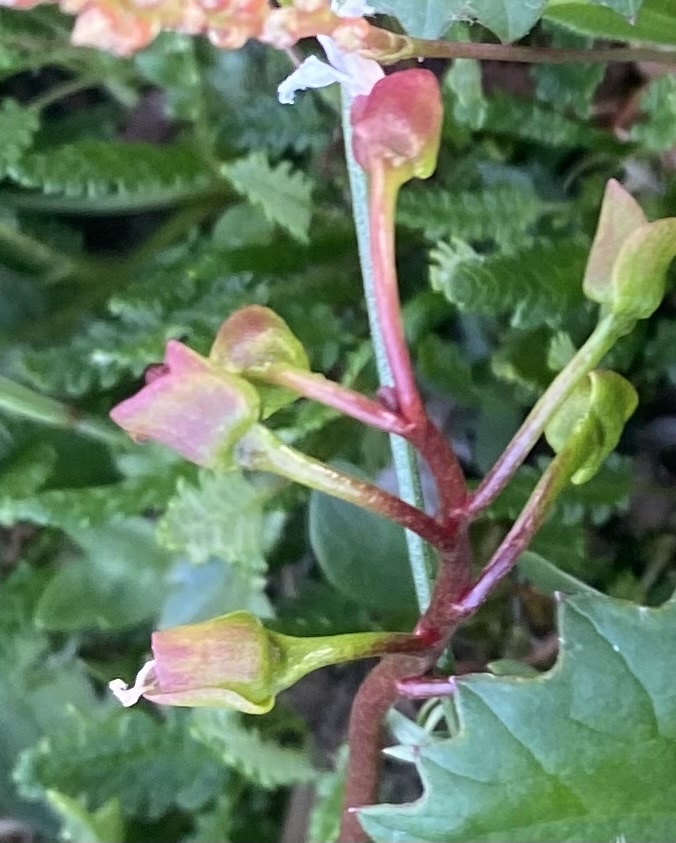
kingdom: Plantae
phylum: Tracheophyta
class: Magnoliopsida
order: Caryophyllales
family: Montiaceae
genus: Claytonia
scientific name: Claytonia joanneana
